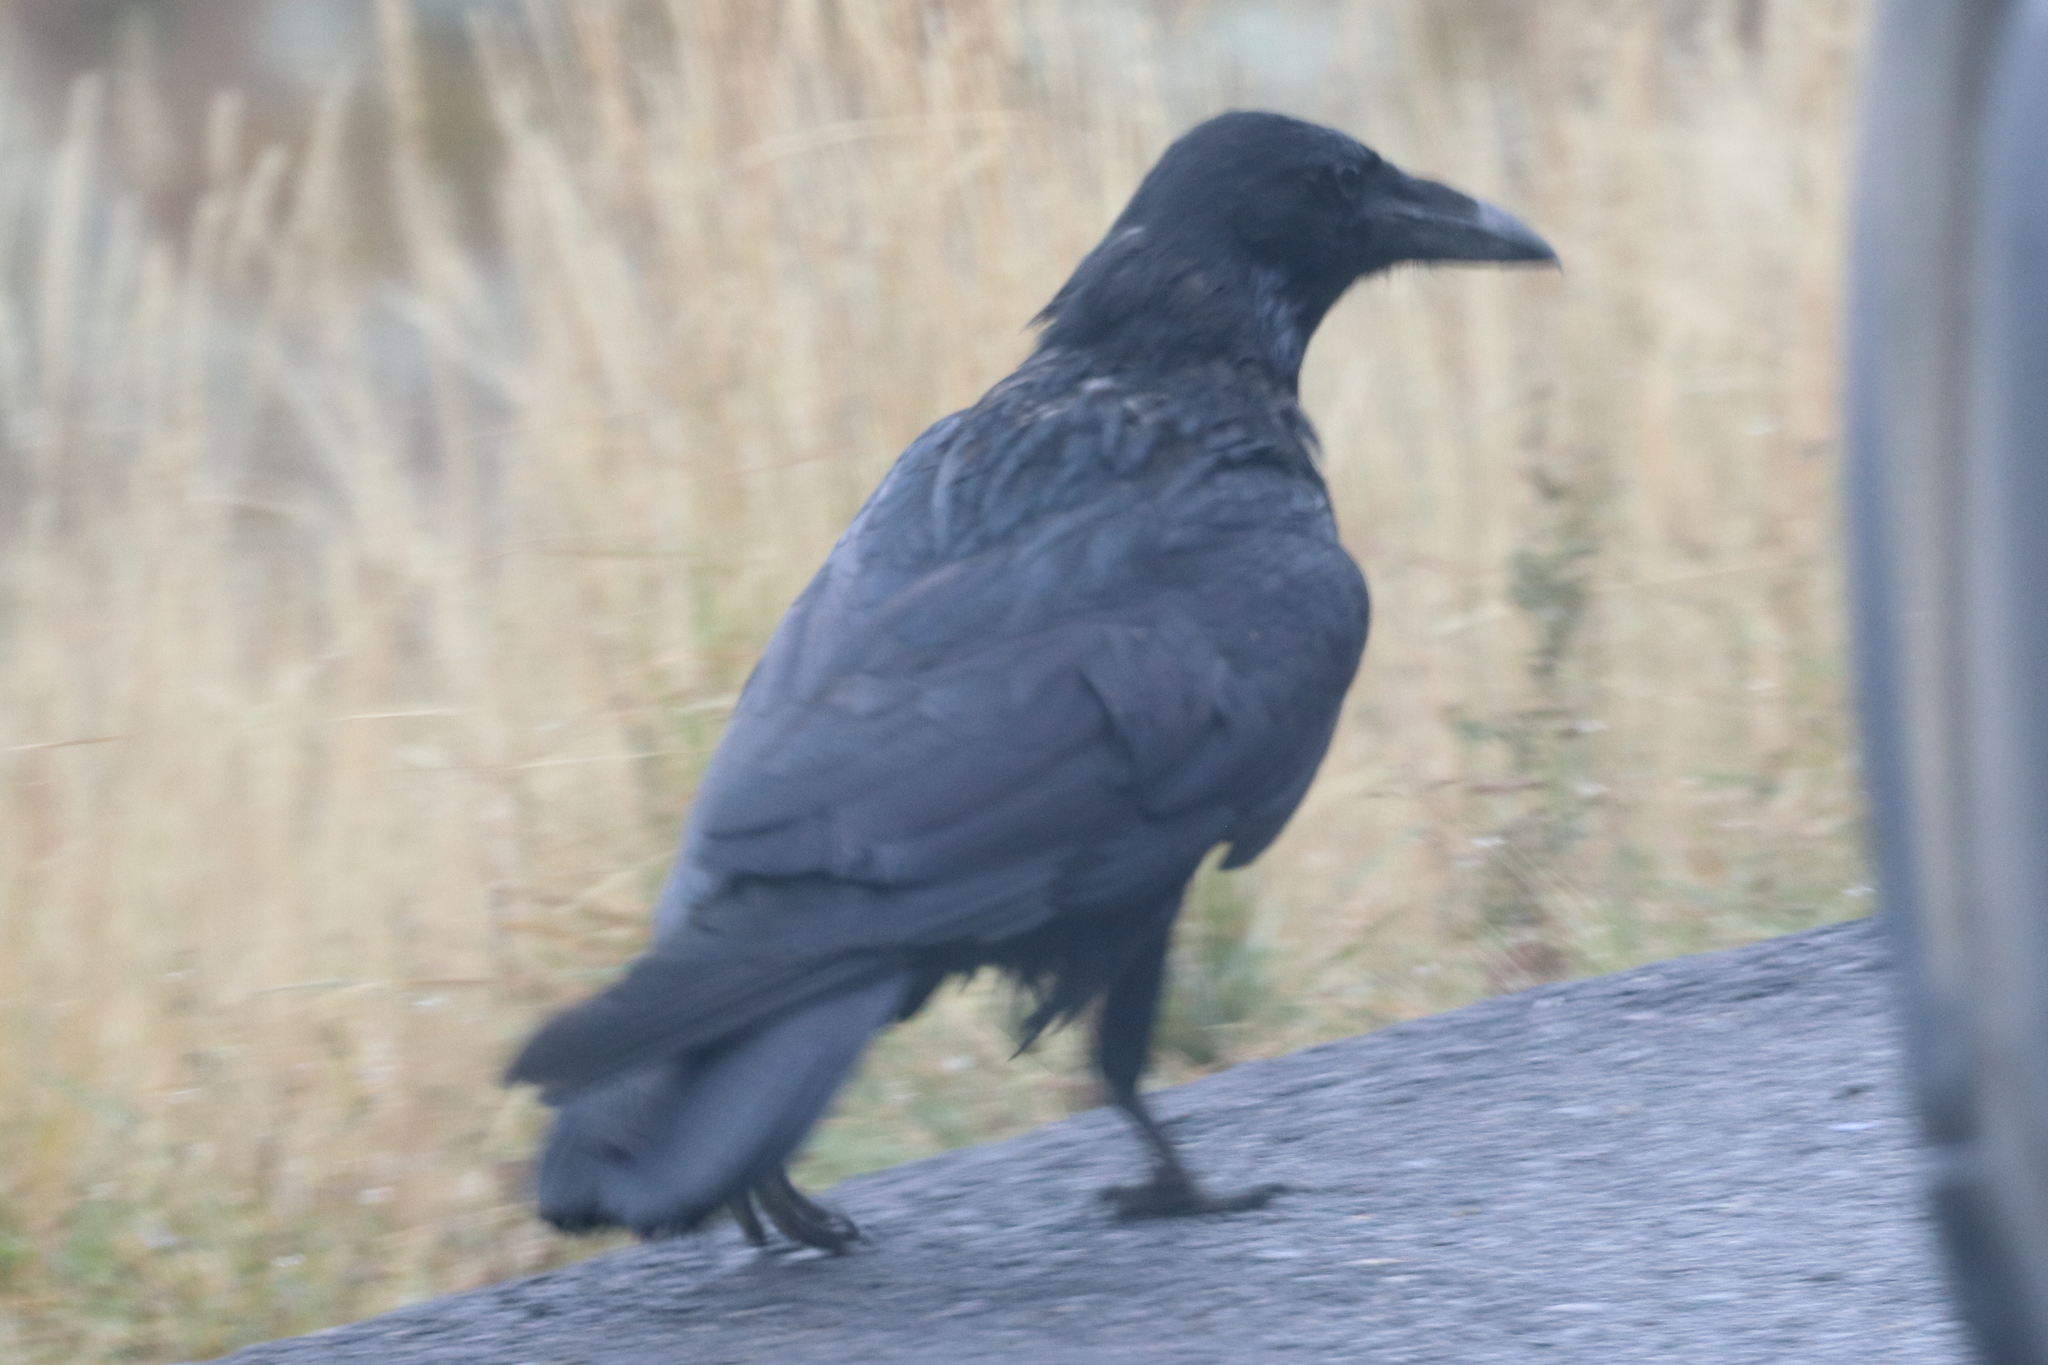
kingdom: Animalia
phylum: Chordata
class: Aves
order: Passeriformes
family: Corvidae
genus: Corvus
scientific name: Corvus corax
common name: Common raven
